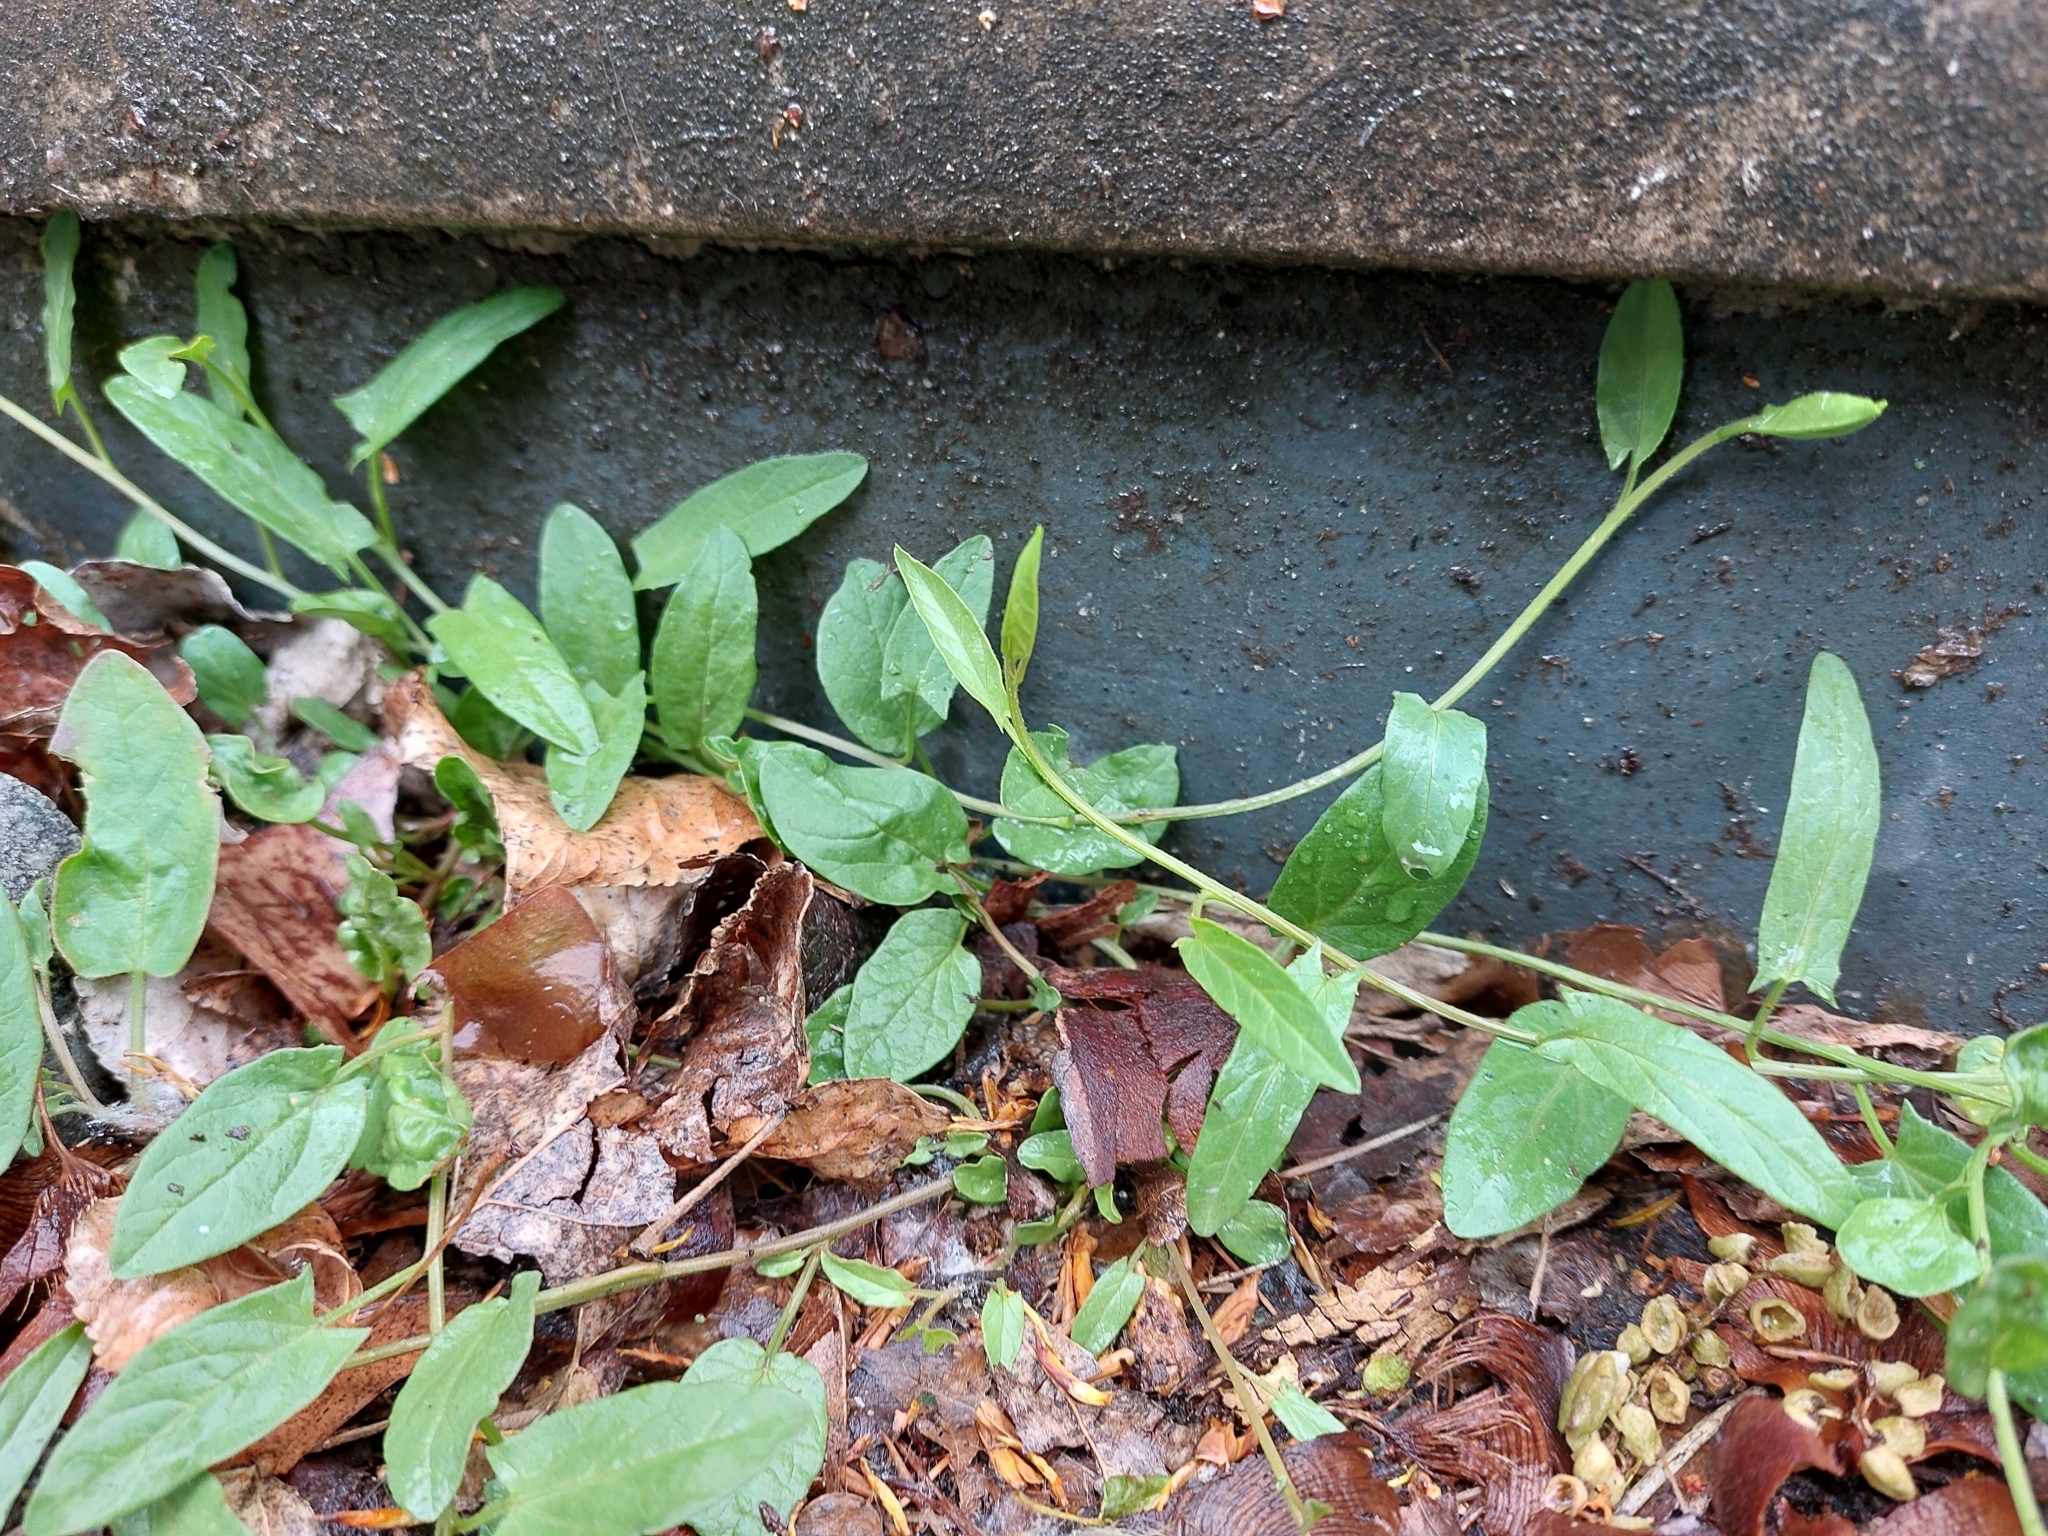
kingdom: Plantae
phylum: Tracheophyta
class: Magnoliopsida
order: Solanales
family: Convolvulaceae
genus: Convolvulus
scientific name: Convolvulus arvensis
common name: Field bindweed
